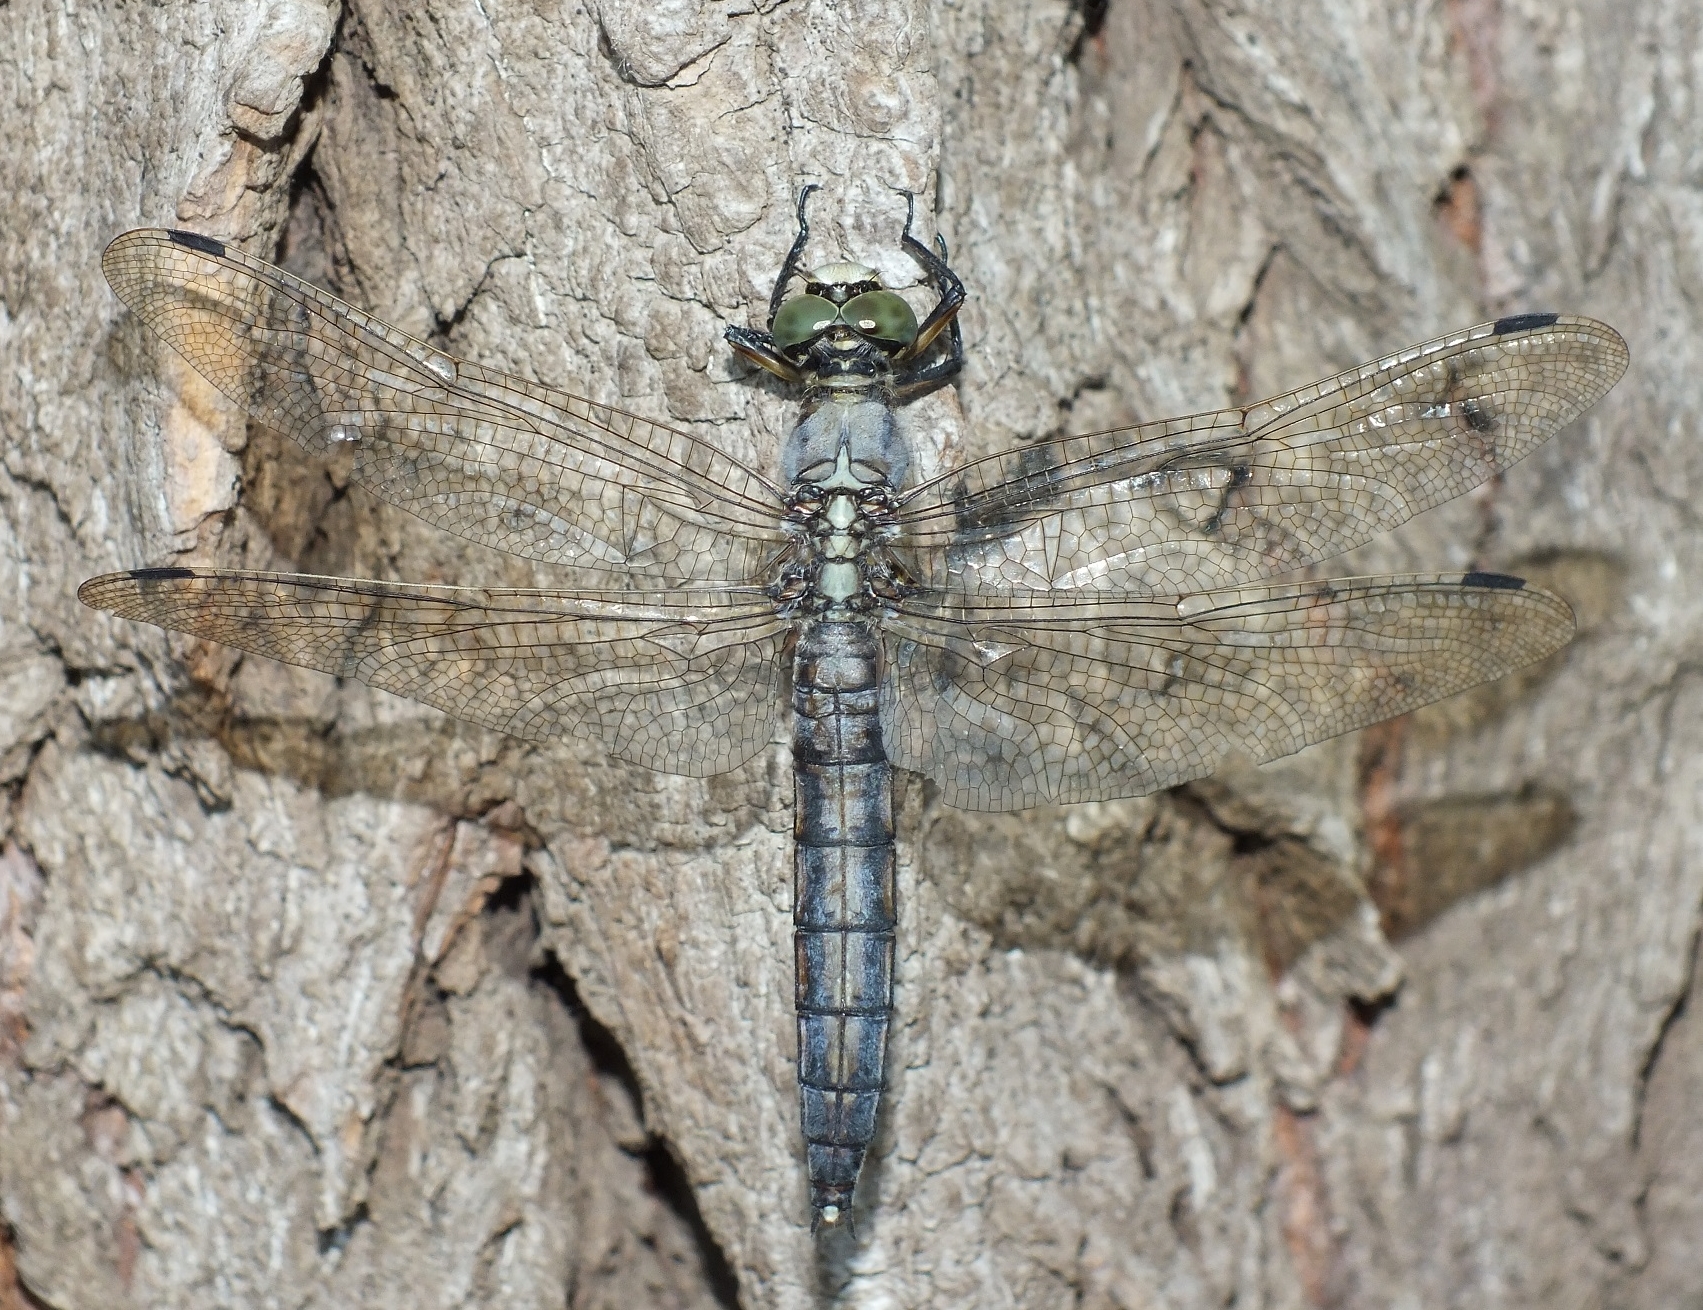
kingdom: Animalia
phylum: Arthropoda
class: Insecta
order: Odonata
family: Libellulidae
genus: Orthetrum
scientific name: Orthetrum cancellatum
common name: Black-tailed skimmer
